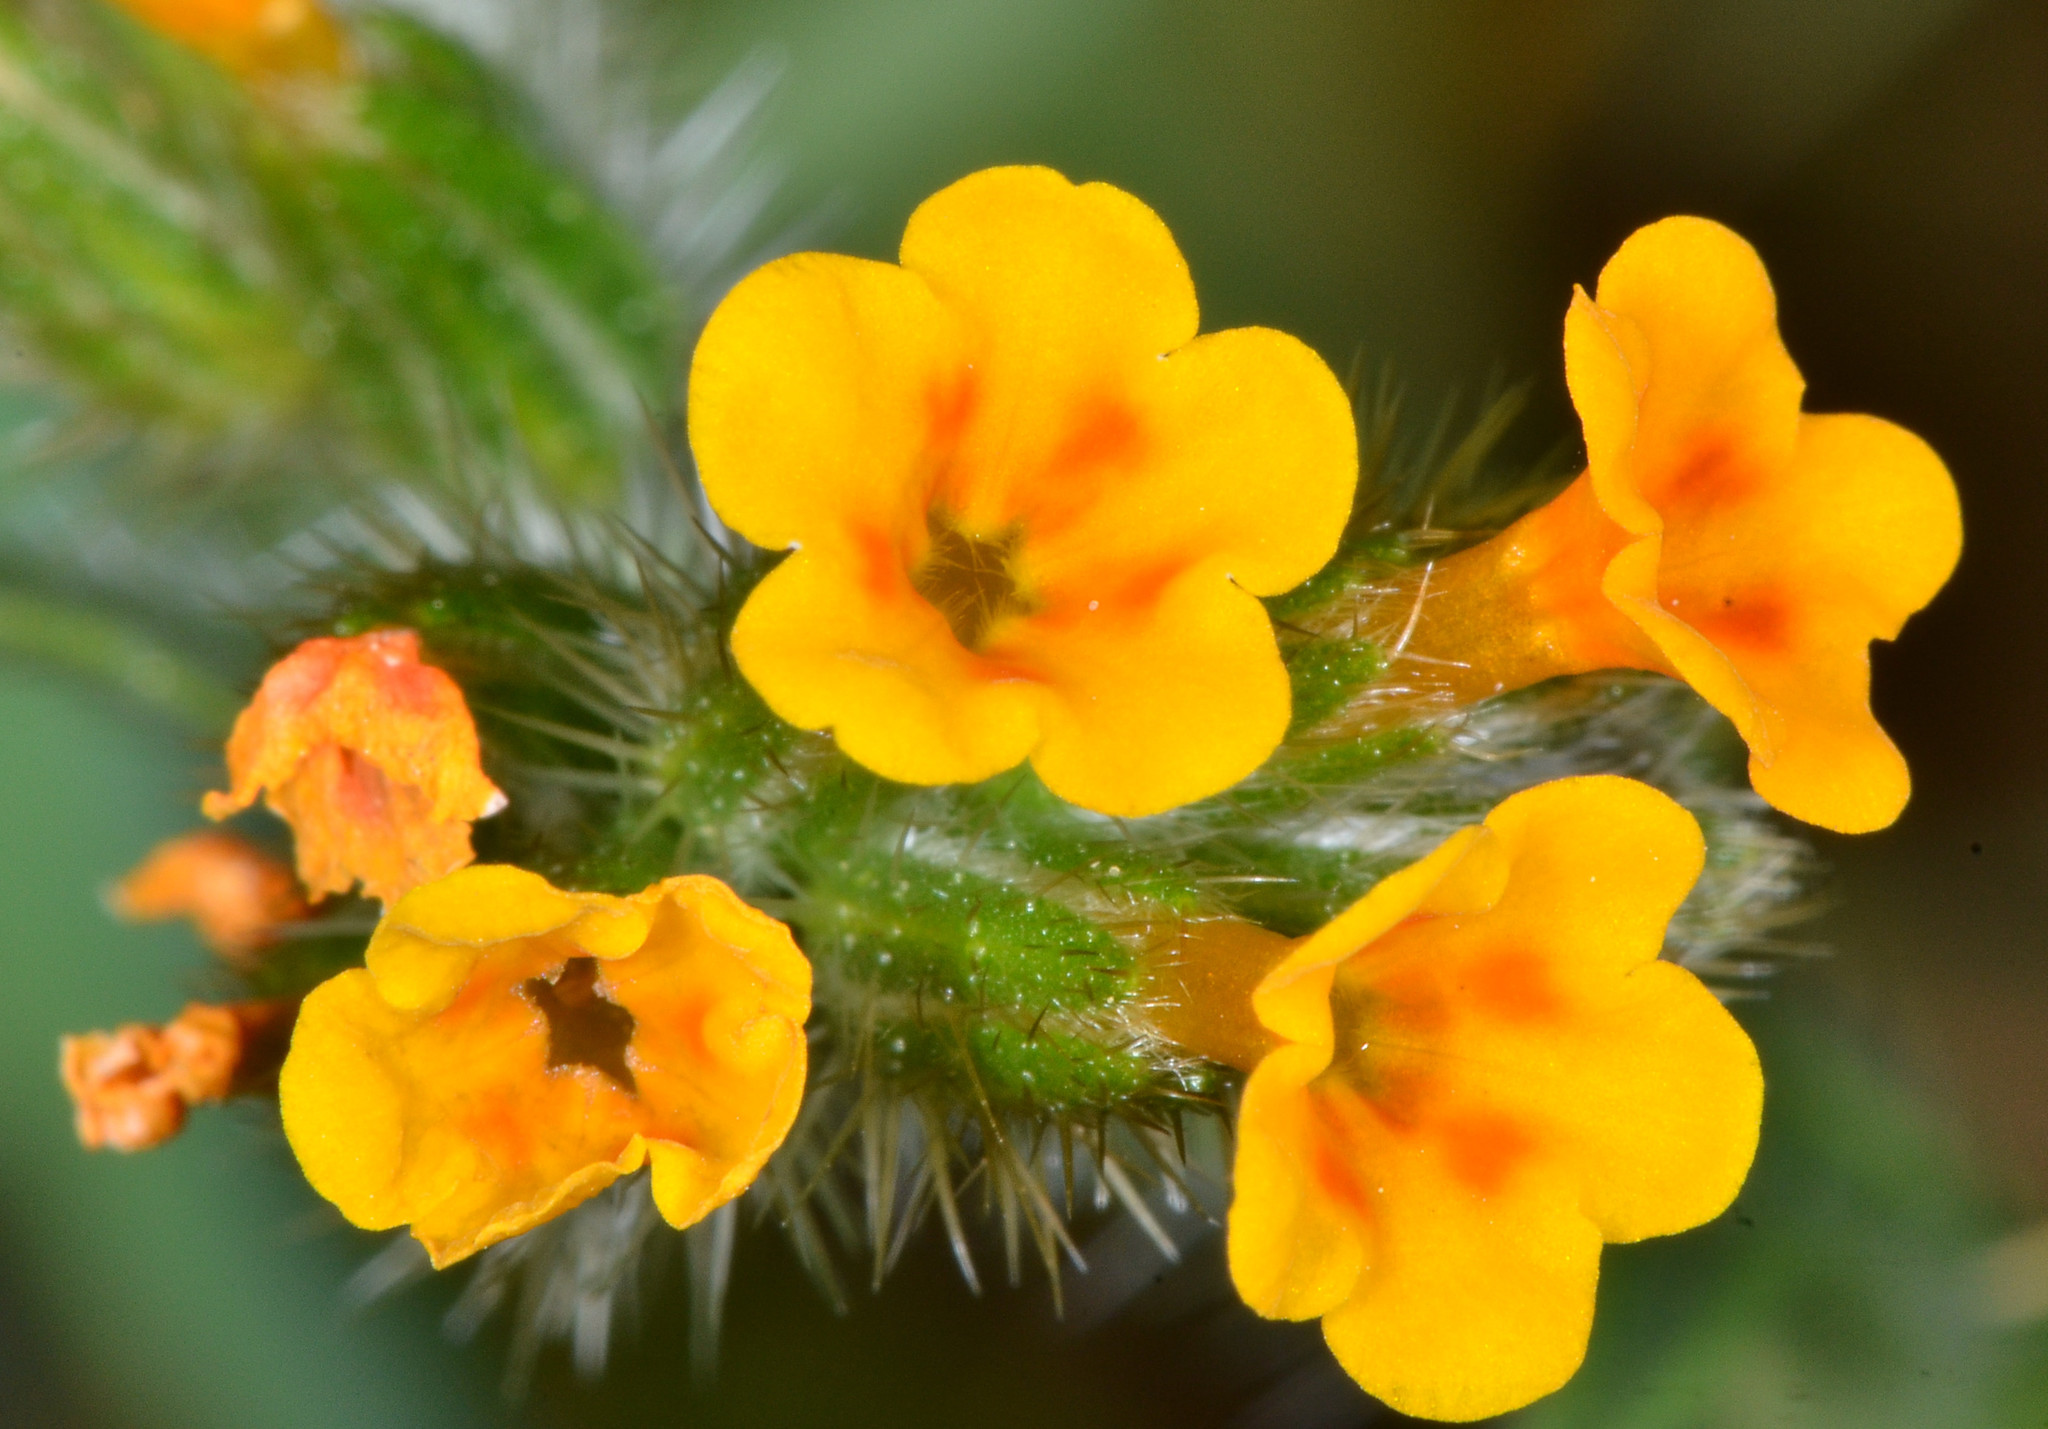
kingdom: Plantae
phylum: Tracheophyta
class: Magnoliopsida
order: Boraginales
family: Boraginaceae
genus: Amsinckia
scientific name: Amsinckia menziesii
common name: Menzies' fiddleneck
